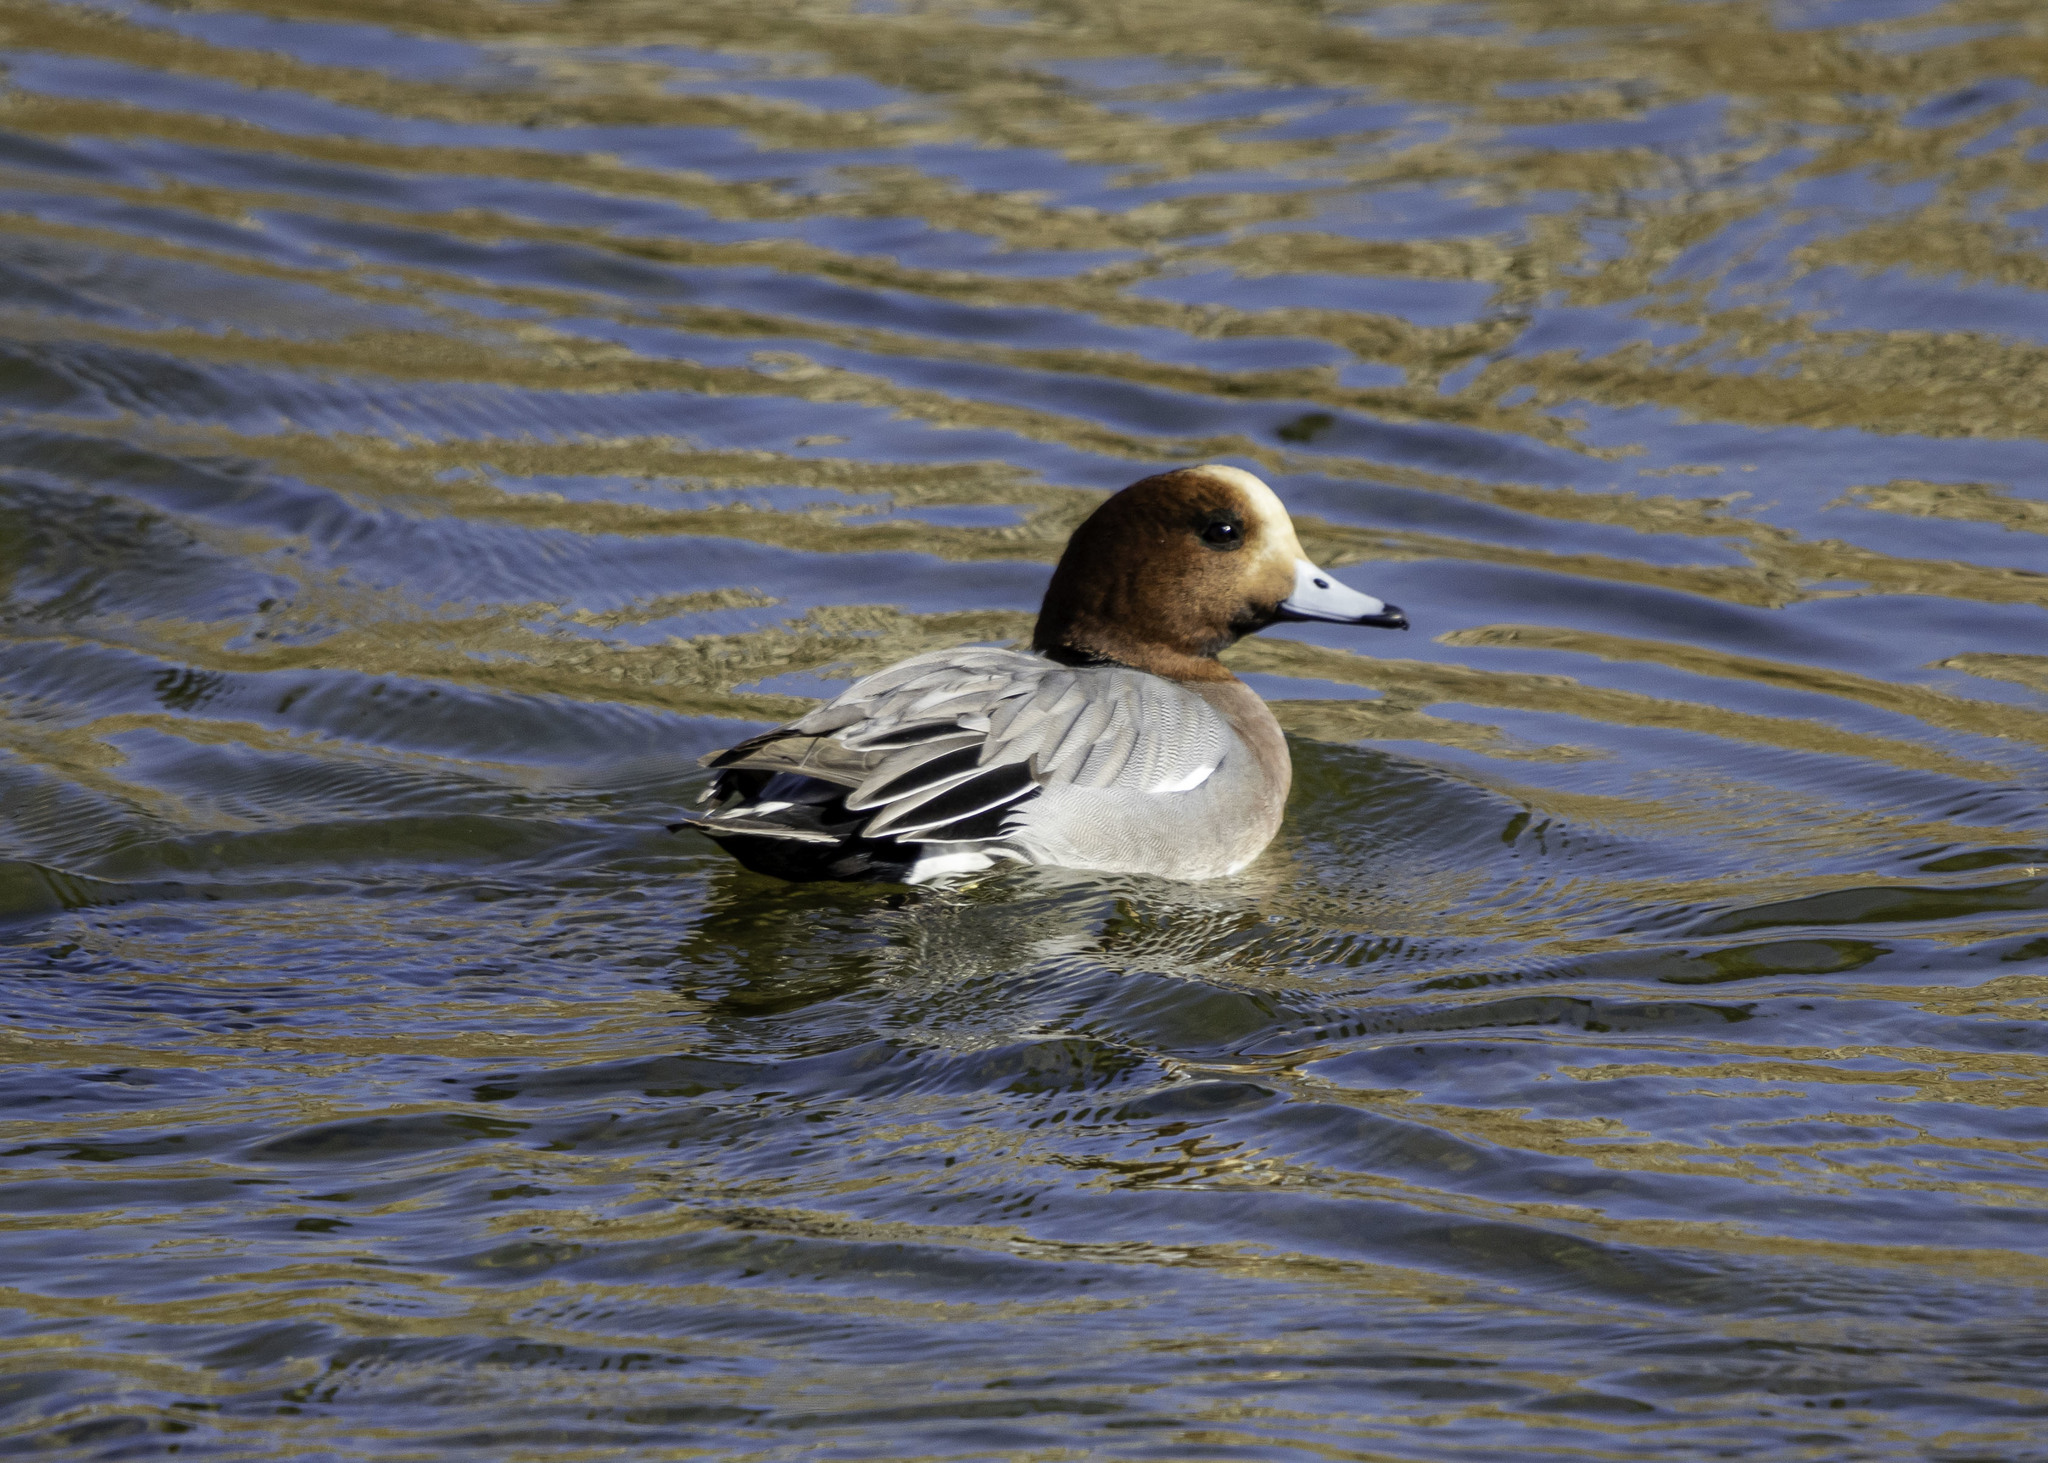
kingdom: Animalia
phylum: Chordata
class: Aves
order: Anseriformes
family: Anatidae
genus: Mareca
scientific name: Mareca penelope
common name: Eurasian wigeon
